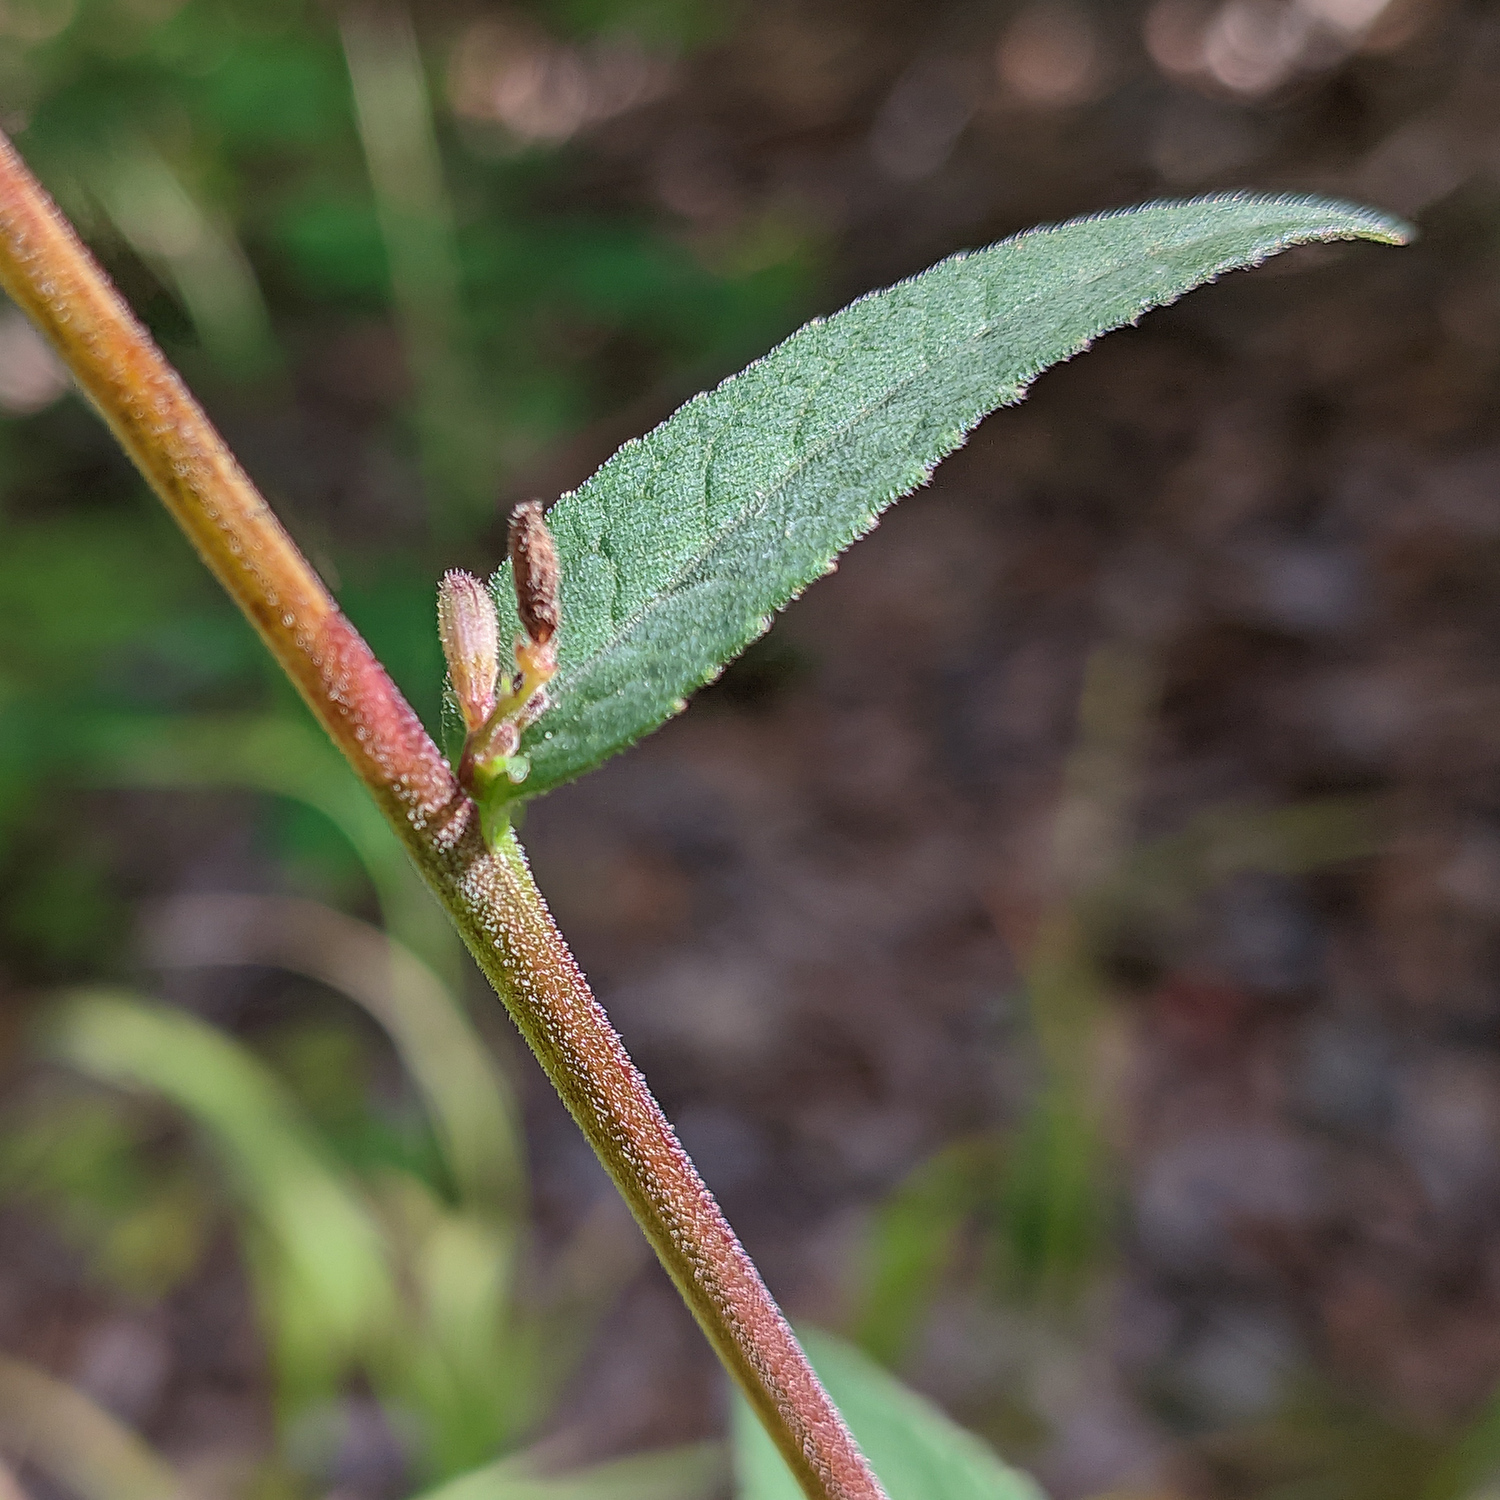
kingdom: Plantae
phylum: Tracheophyta
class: Magnoliopsida
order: Asterales
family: Campanulaceae
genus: Campanula
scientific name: Campanula rapunculoides
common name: Creeping bellflower
